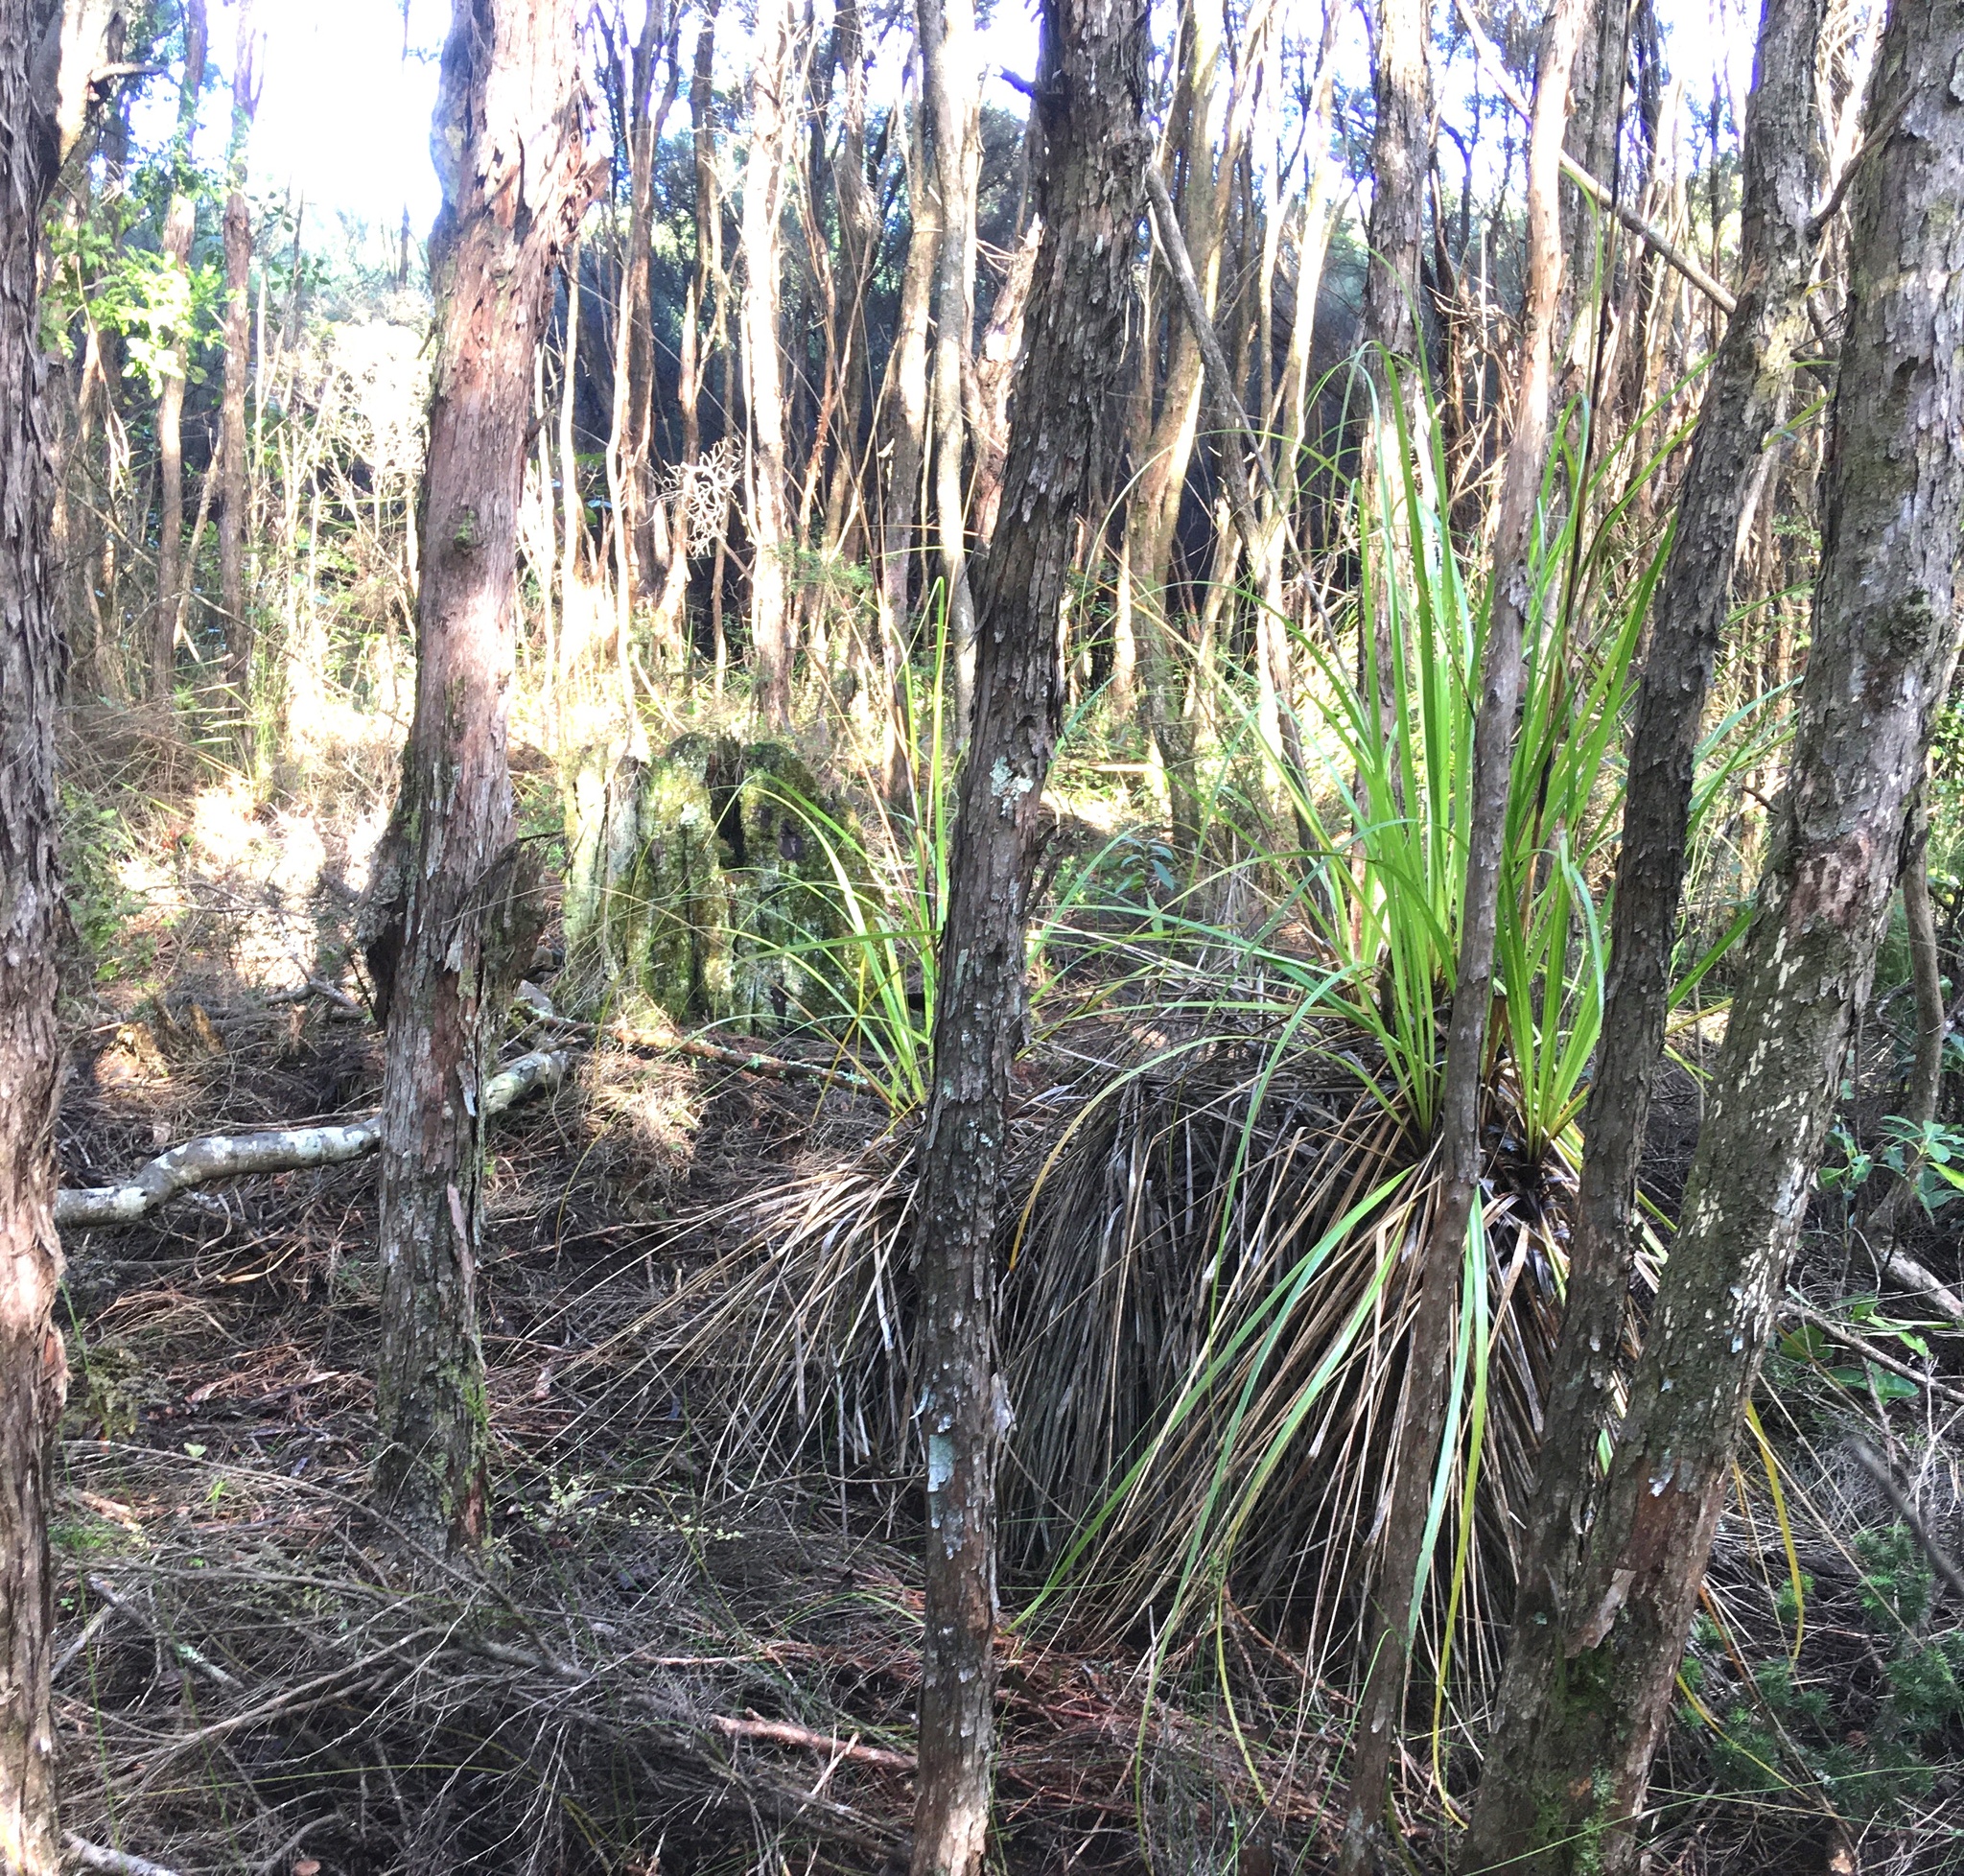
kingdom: Plantae
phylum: Tracheophyta
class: Liliopsida
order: Poales
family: Cyperaceae
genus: Gahnia
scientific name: Gahnia xanthocarpa
